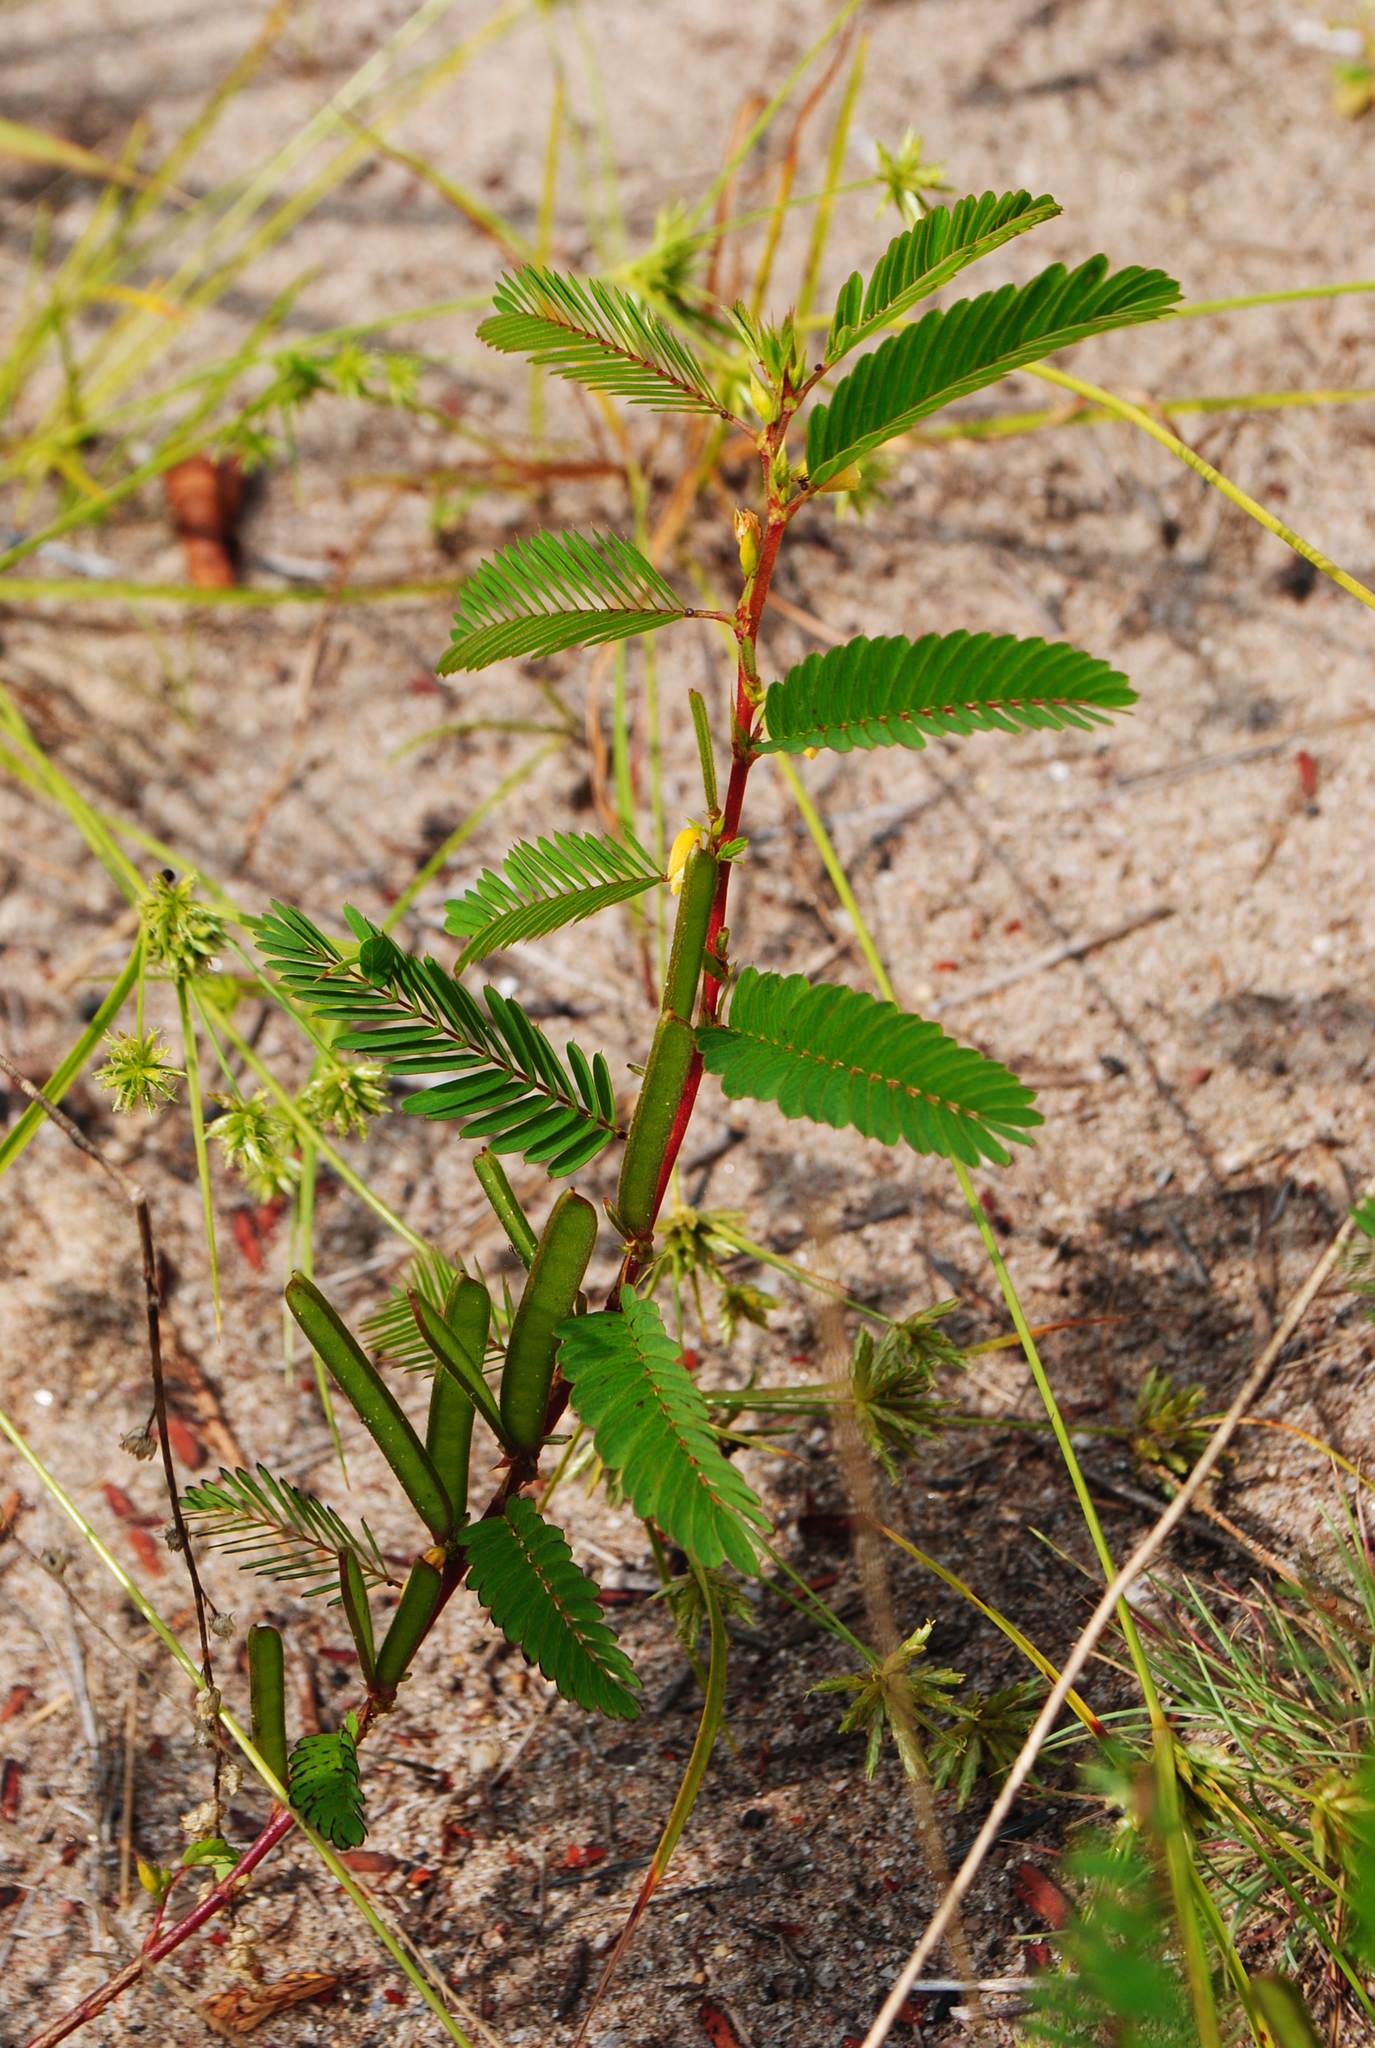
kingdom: Plantae
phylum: Tracheophyta
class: Magnoliopsida
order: Fabales
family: Fabaceae
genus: Chamaecrista
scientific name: Chamaecrista nictitans
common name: Sensitive cassia
